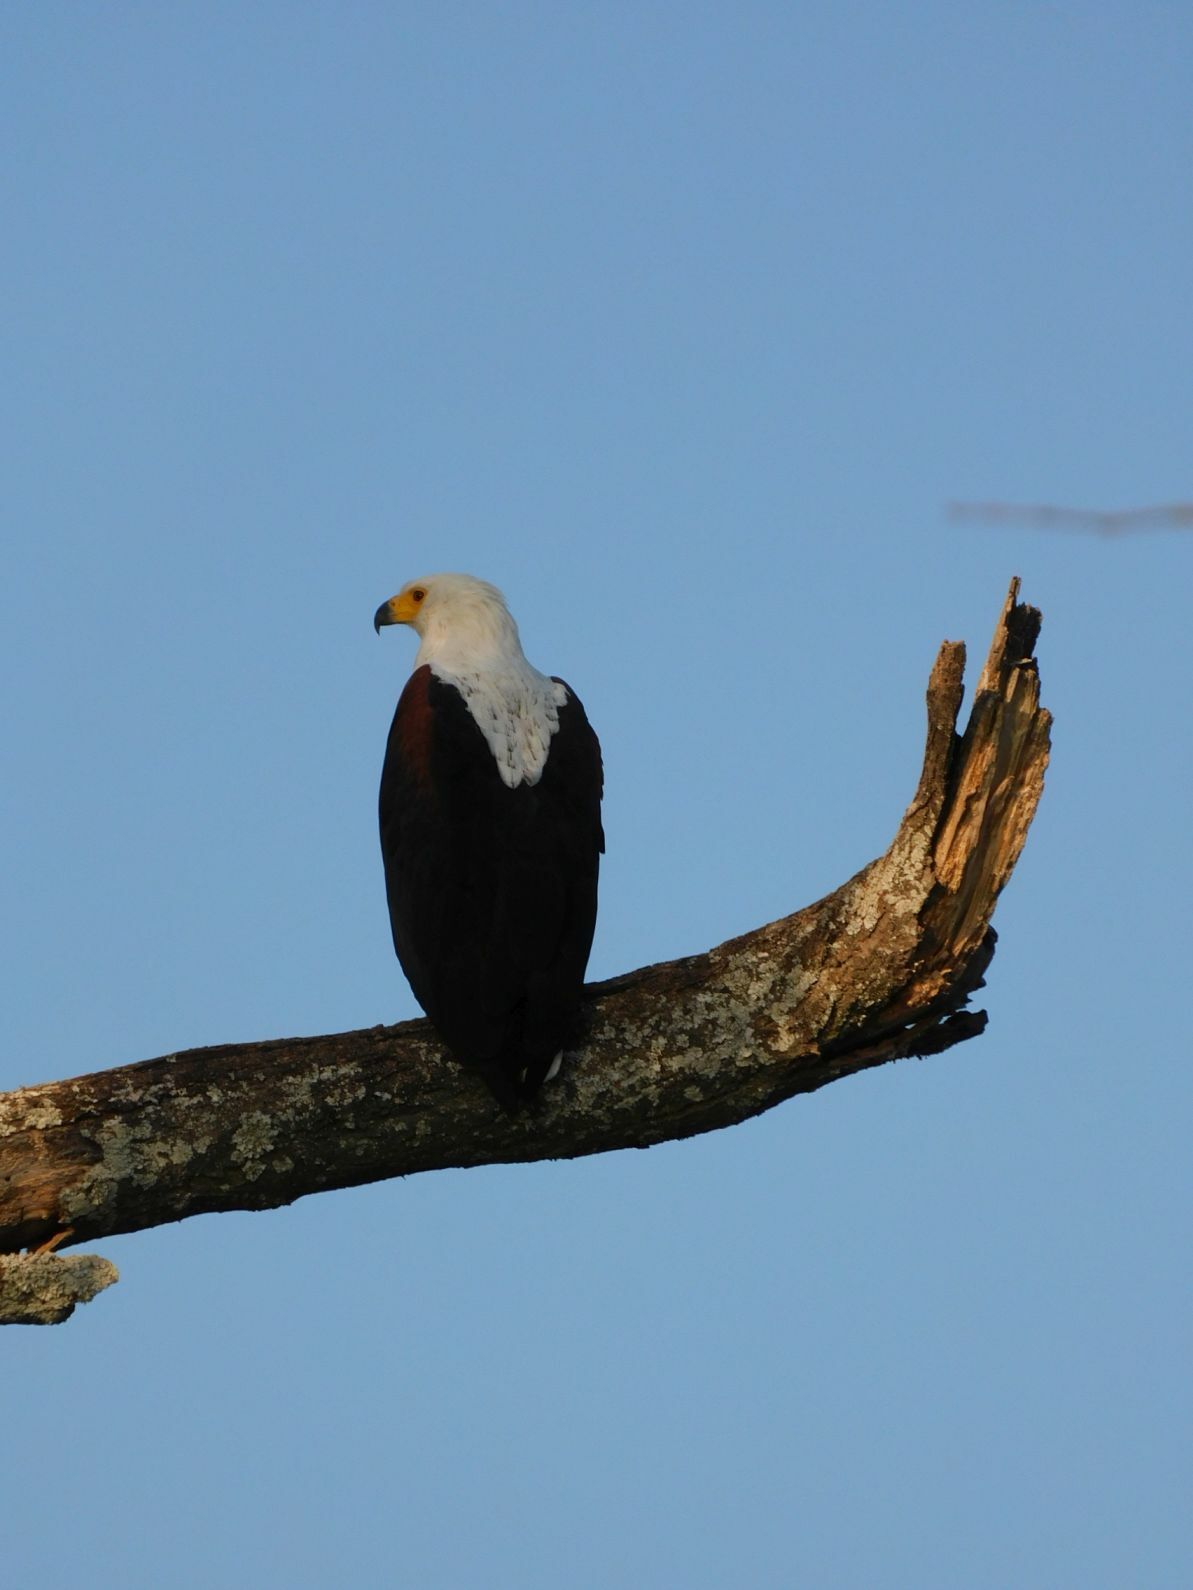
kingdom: Animalia
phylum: Chordata
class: Aves
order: Accipitriformes
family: Accipitridae
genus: Haliaeetus
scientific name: Haliaeetus vocifer
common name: African fish eagle
